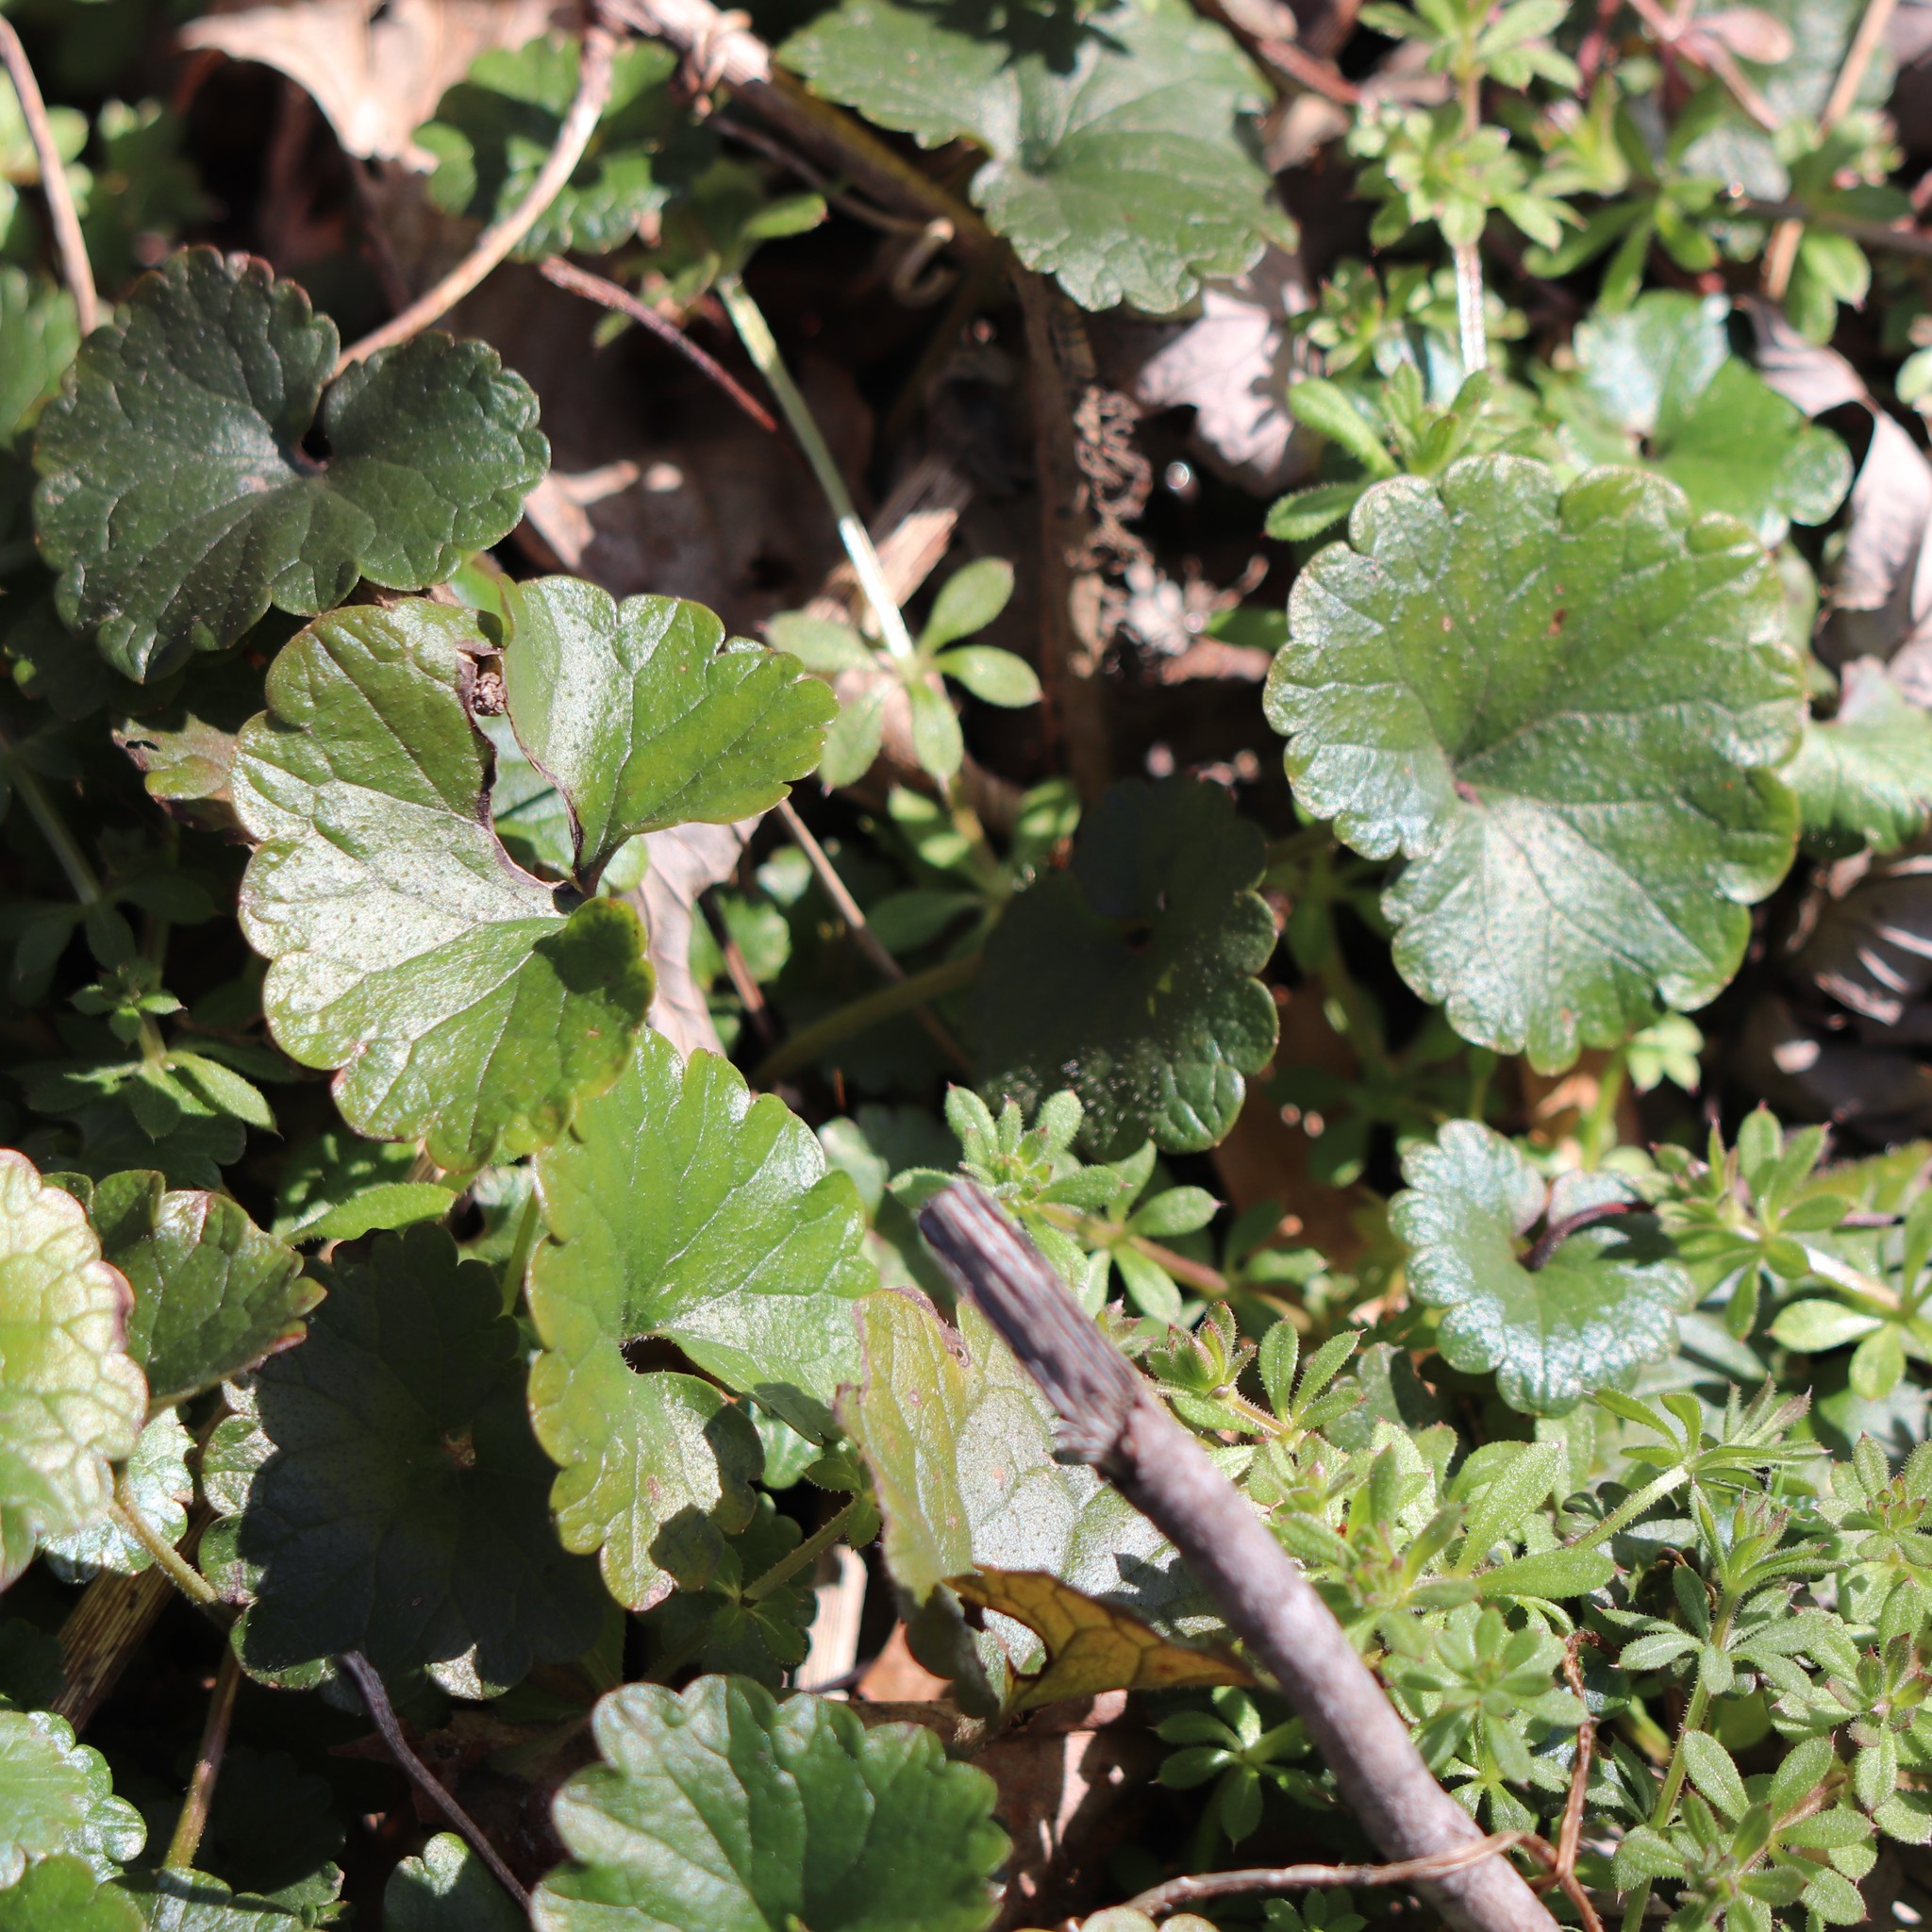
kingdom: Plantae
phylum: Tracheophyta
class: Magnoliopsida
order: Lamiales
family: Lamiaceae
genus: Glechoma
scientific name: Glechoma hederacea
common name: Ground ivy
